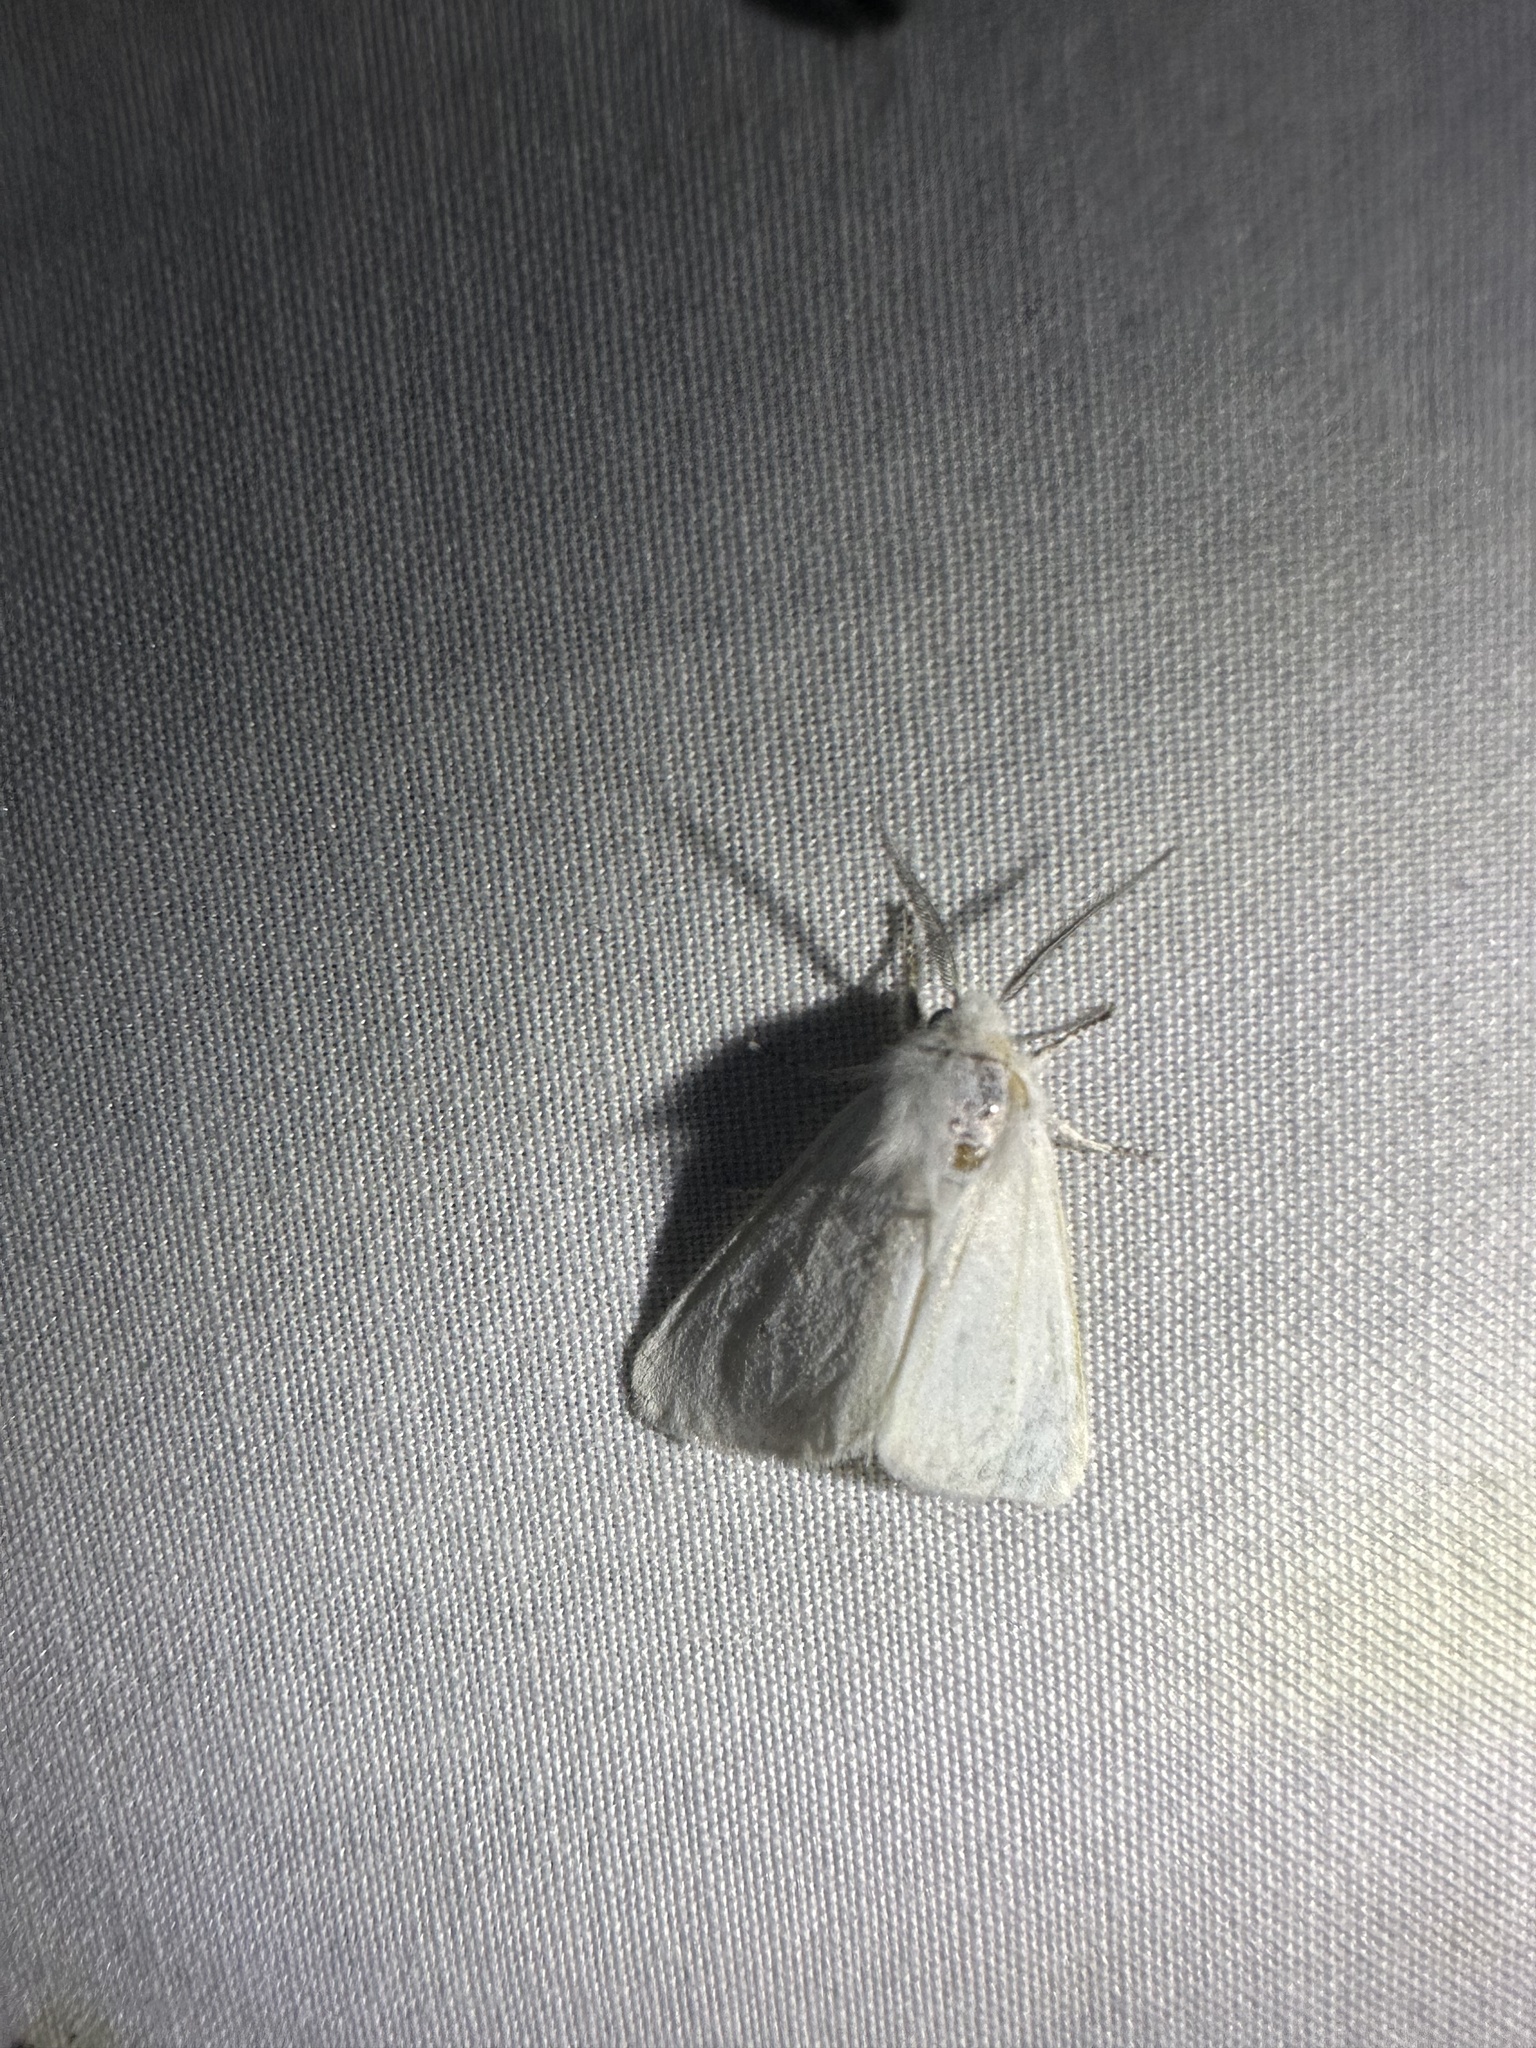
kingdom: Animalia
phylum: Arthropoda
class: Insecta
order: Lepidoptera
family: Erebidae
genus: Hyphantria
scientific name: Hyphantria cunea
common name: American white moth
